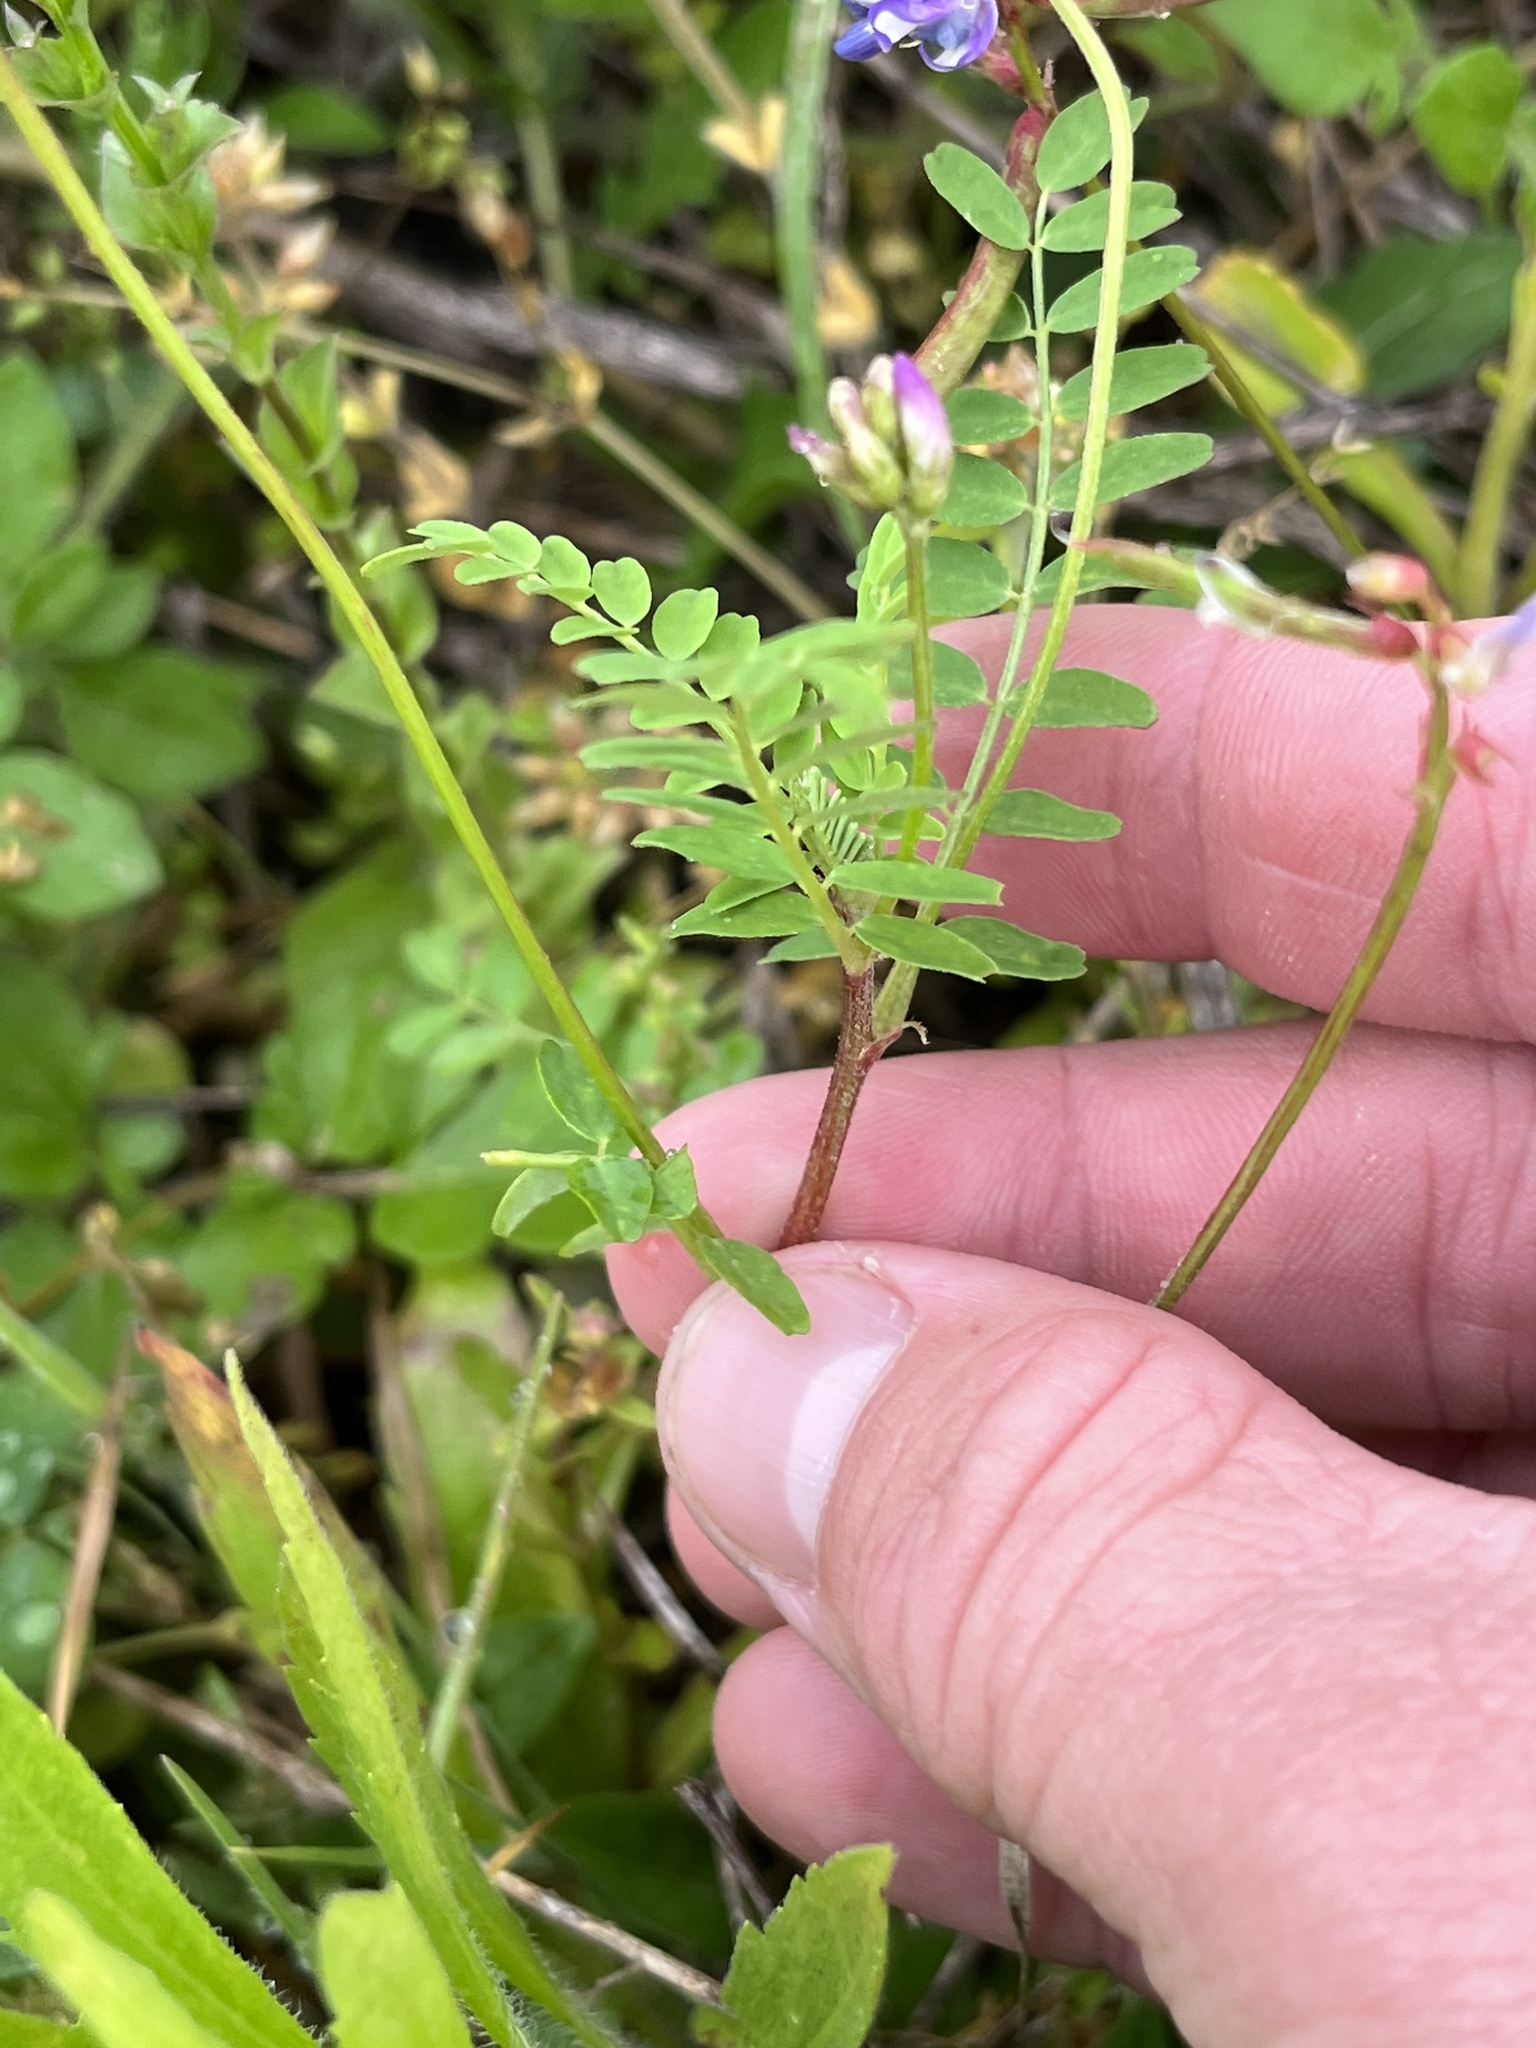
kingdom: Plantae
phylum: Tracheophyta
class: Magnoliopsida
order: Fabales
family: Fabaceae
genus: Astragalus
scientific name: Astragalus leptocarpus
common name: Bodkin milk-vetch
